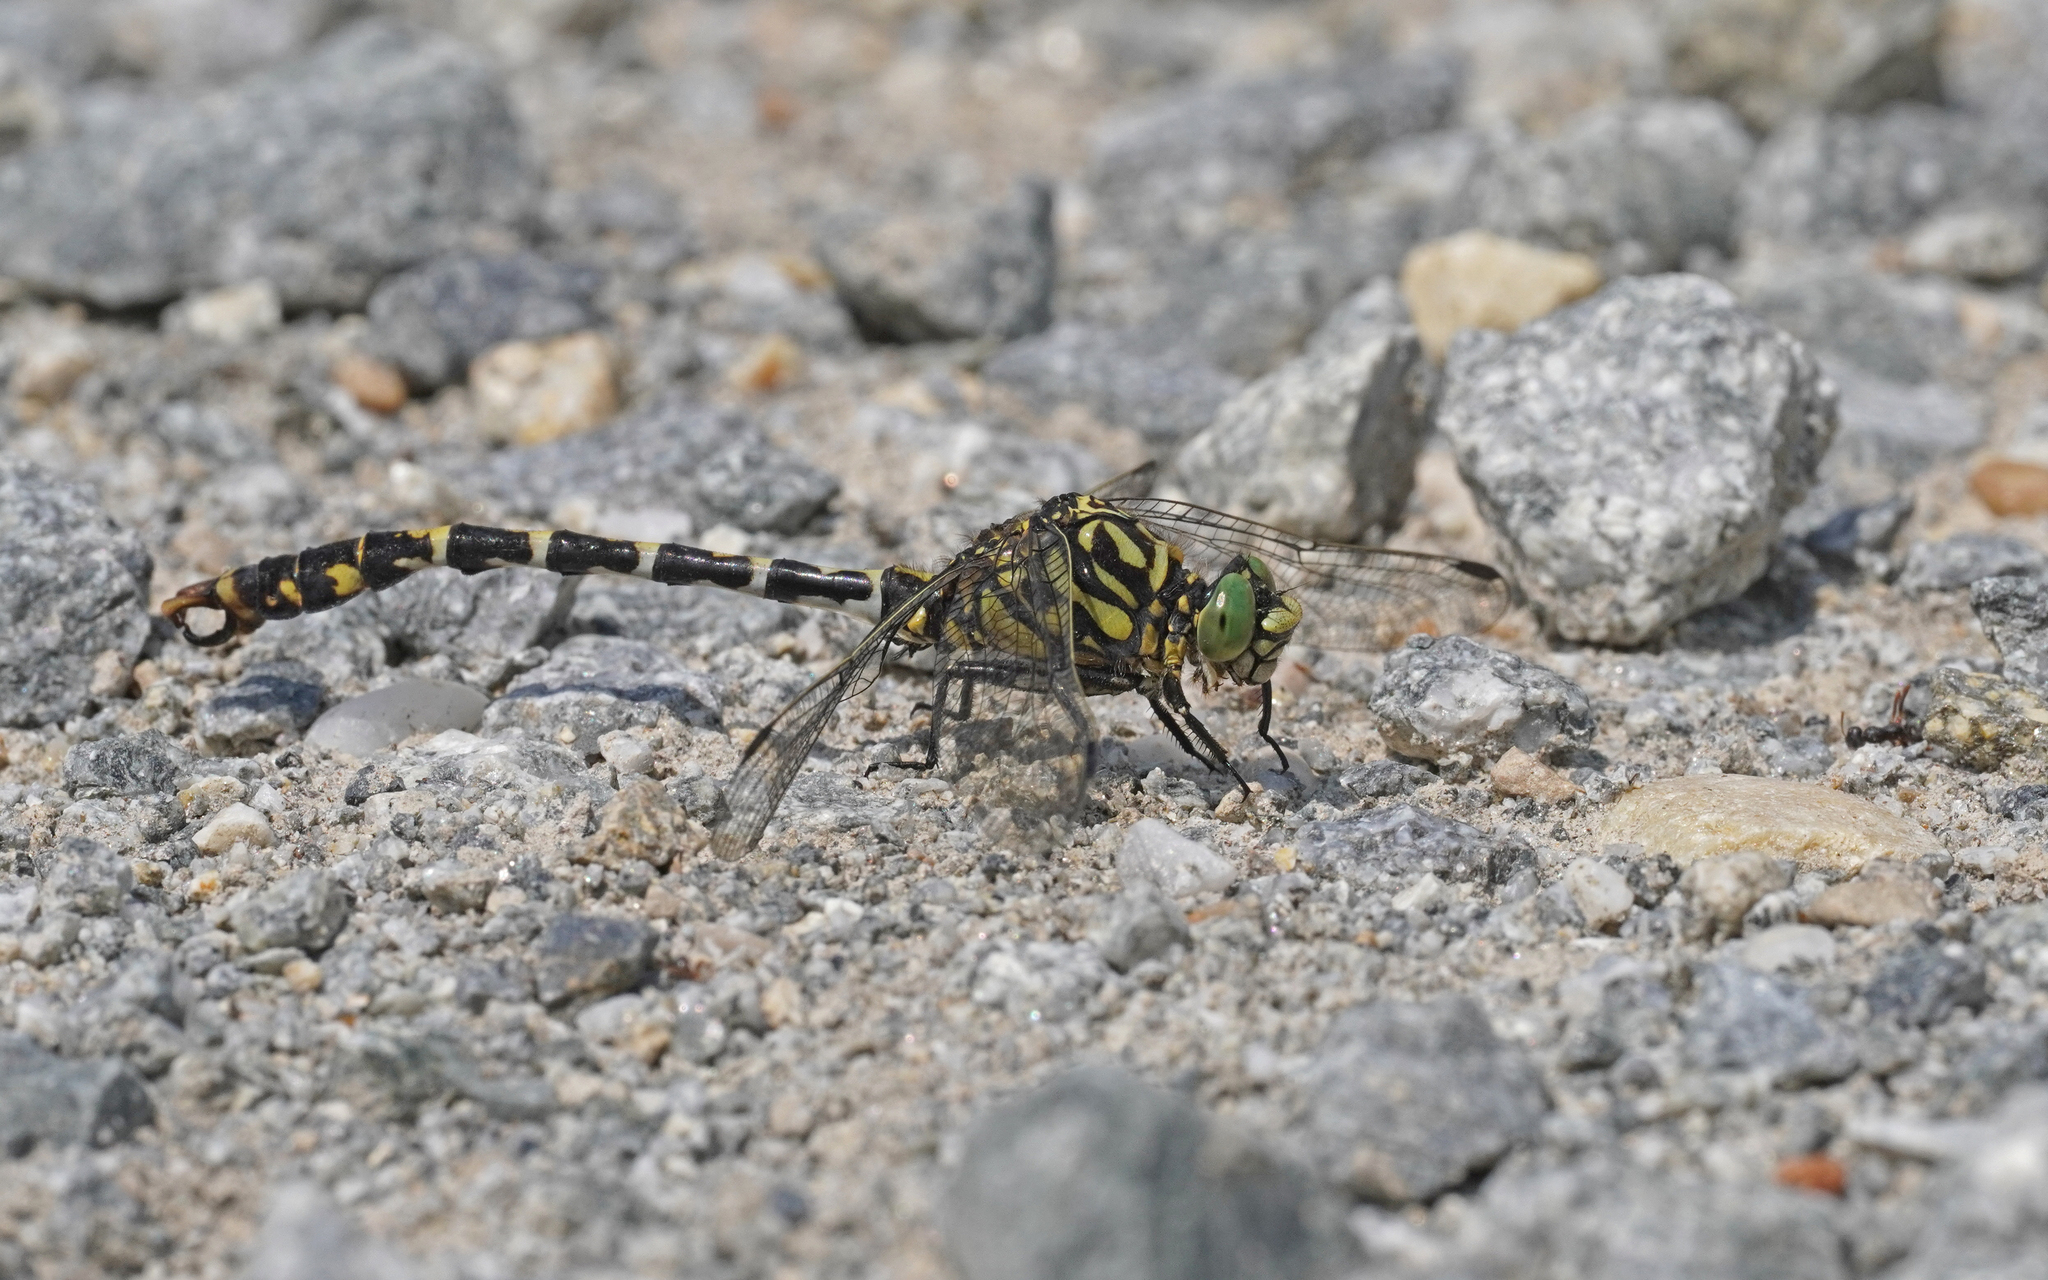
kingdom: Animalia
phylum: Arthropoda
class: Insecta
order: Odonata
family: Gomphidae
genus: Onychogomphus
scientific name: Onychogomphus forcipatus
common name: Small pincertail
